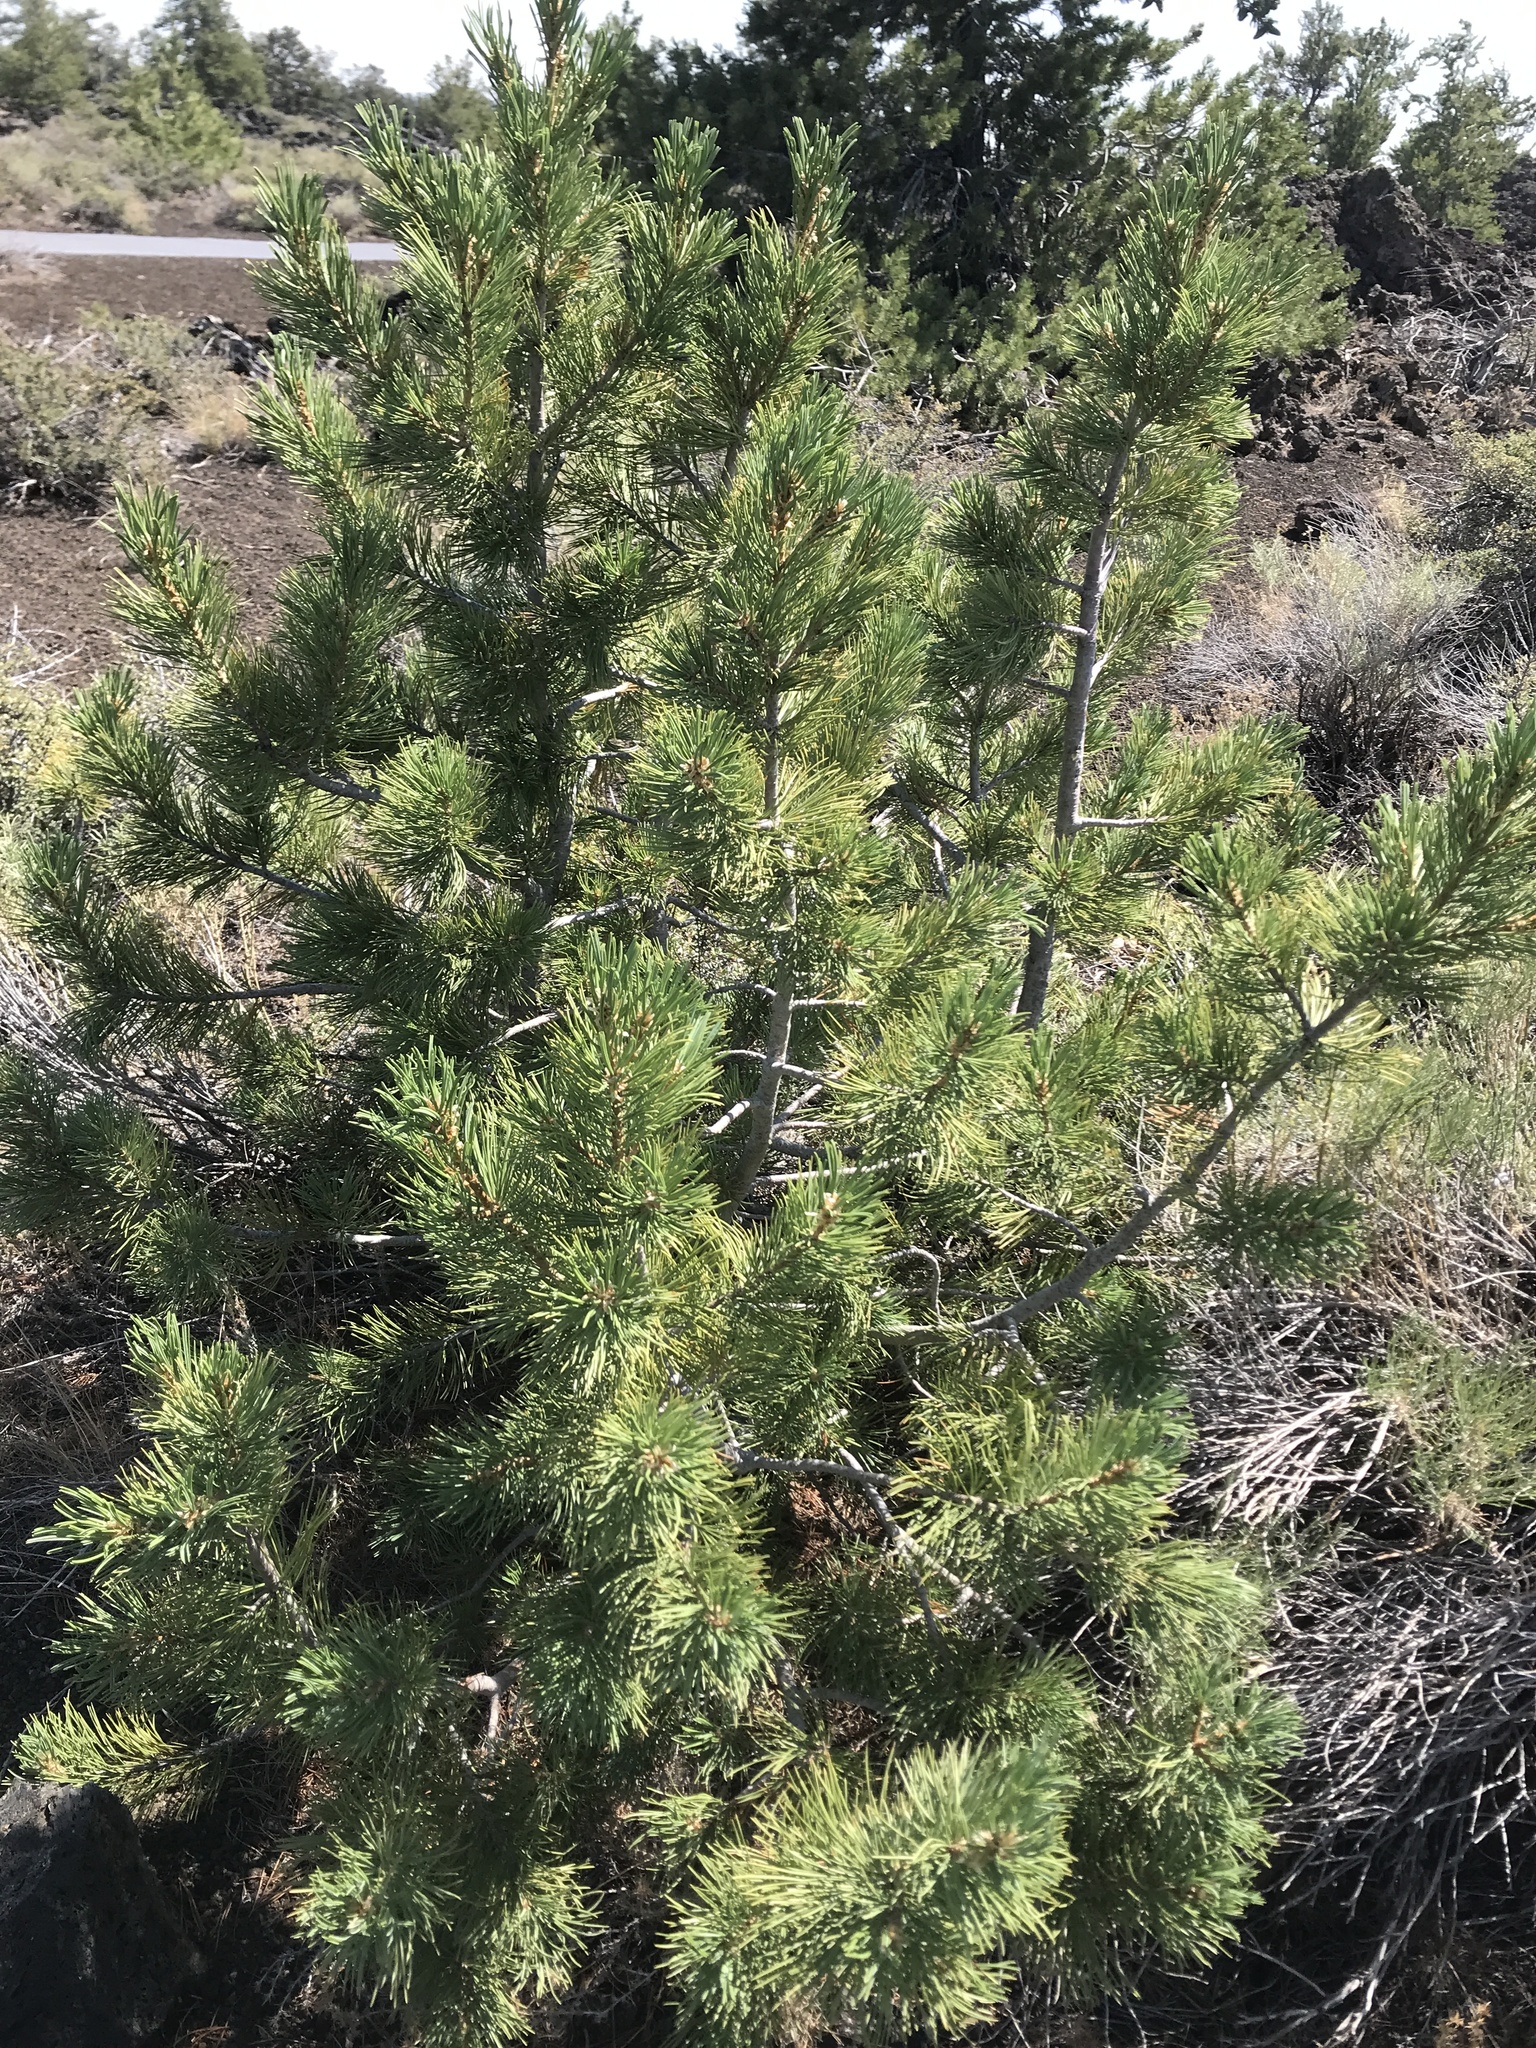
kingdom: Plantae
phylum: Tracheophyta
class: Pinopsida
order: Pinales
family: Pinaceae
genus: Pinus
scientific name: Pinus flexilis
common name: Limber pine
